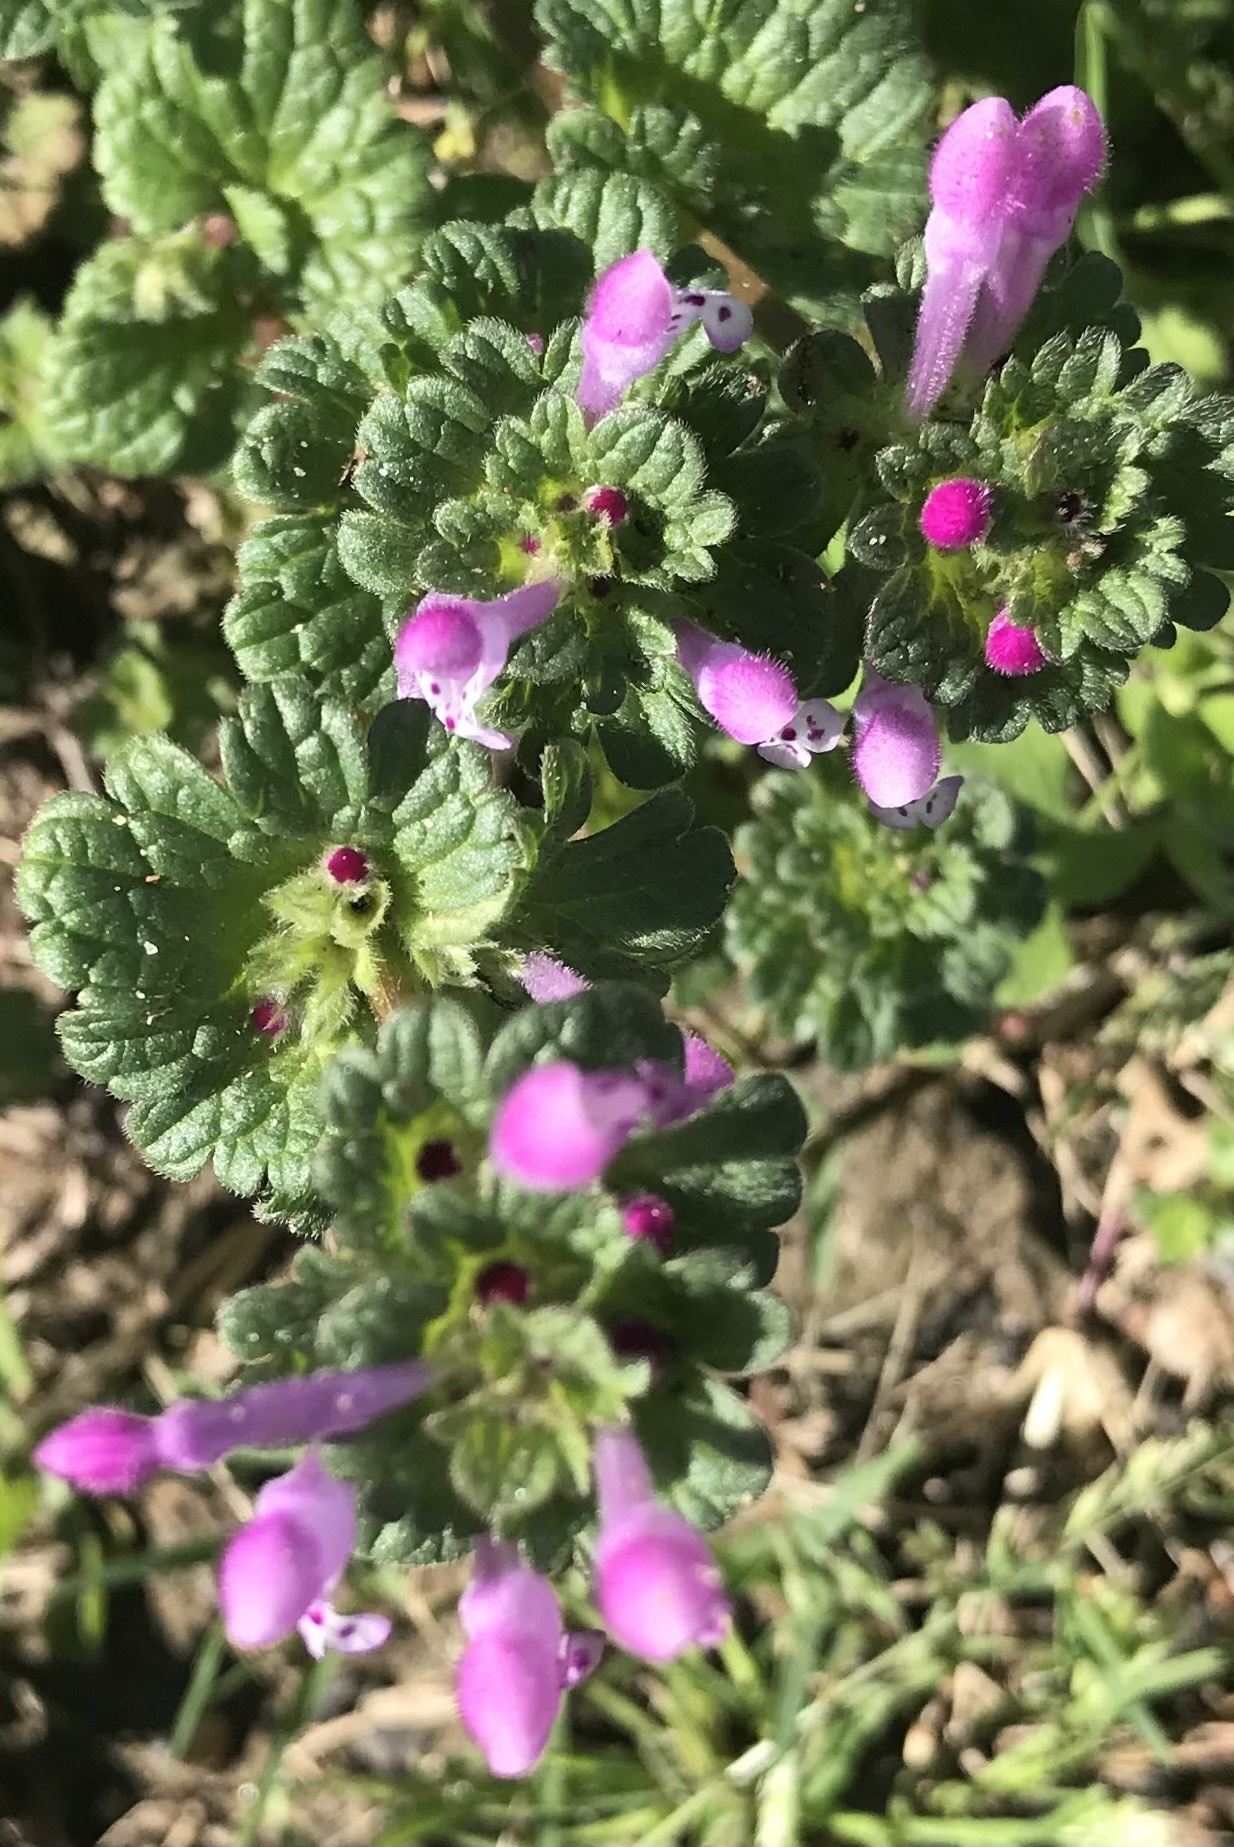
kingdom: Plantae
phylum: Tracheophyta
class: Magnoliopsida
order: Lamiales
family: Lamiaceae
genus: Lamium
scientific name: Lamium amplexicaule
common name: Henbit dead-nettle
